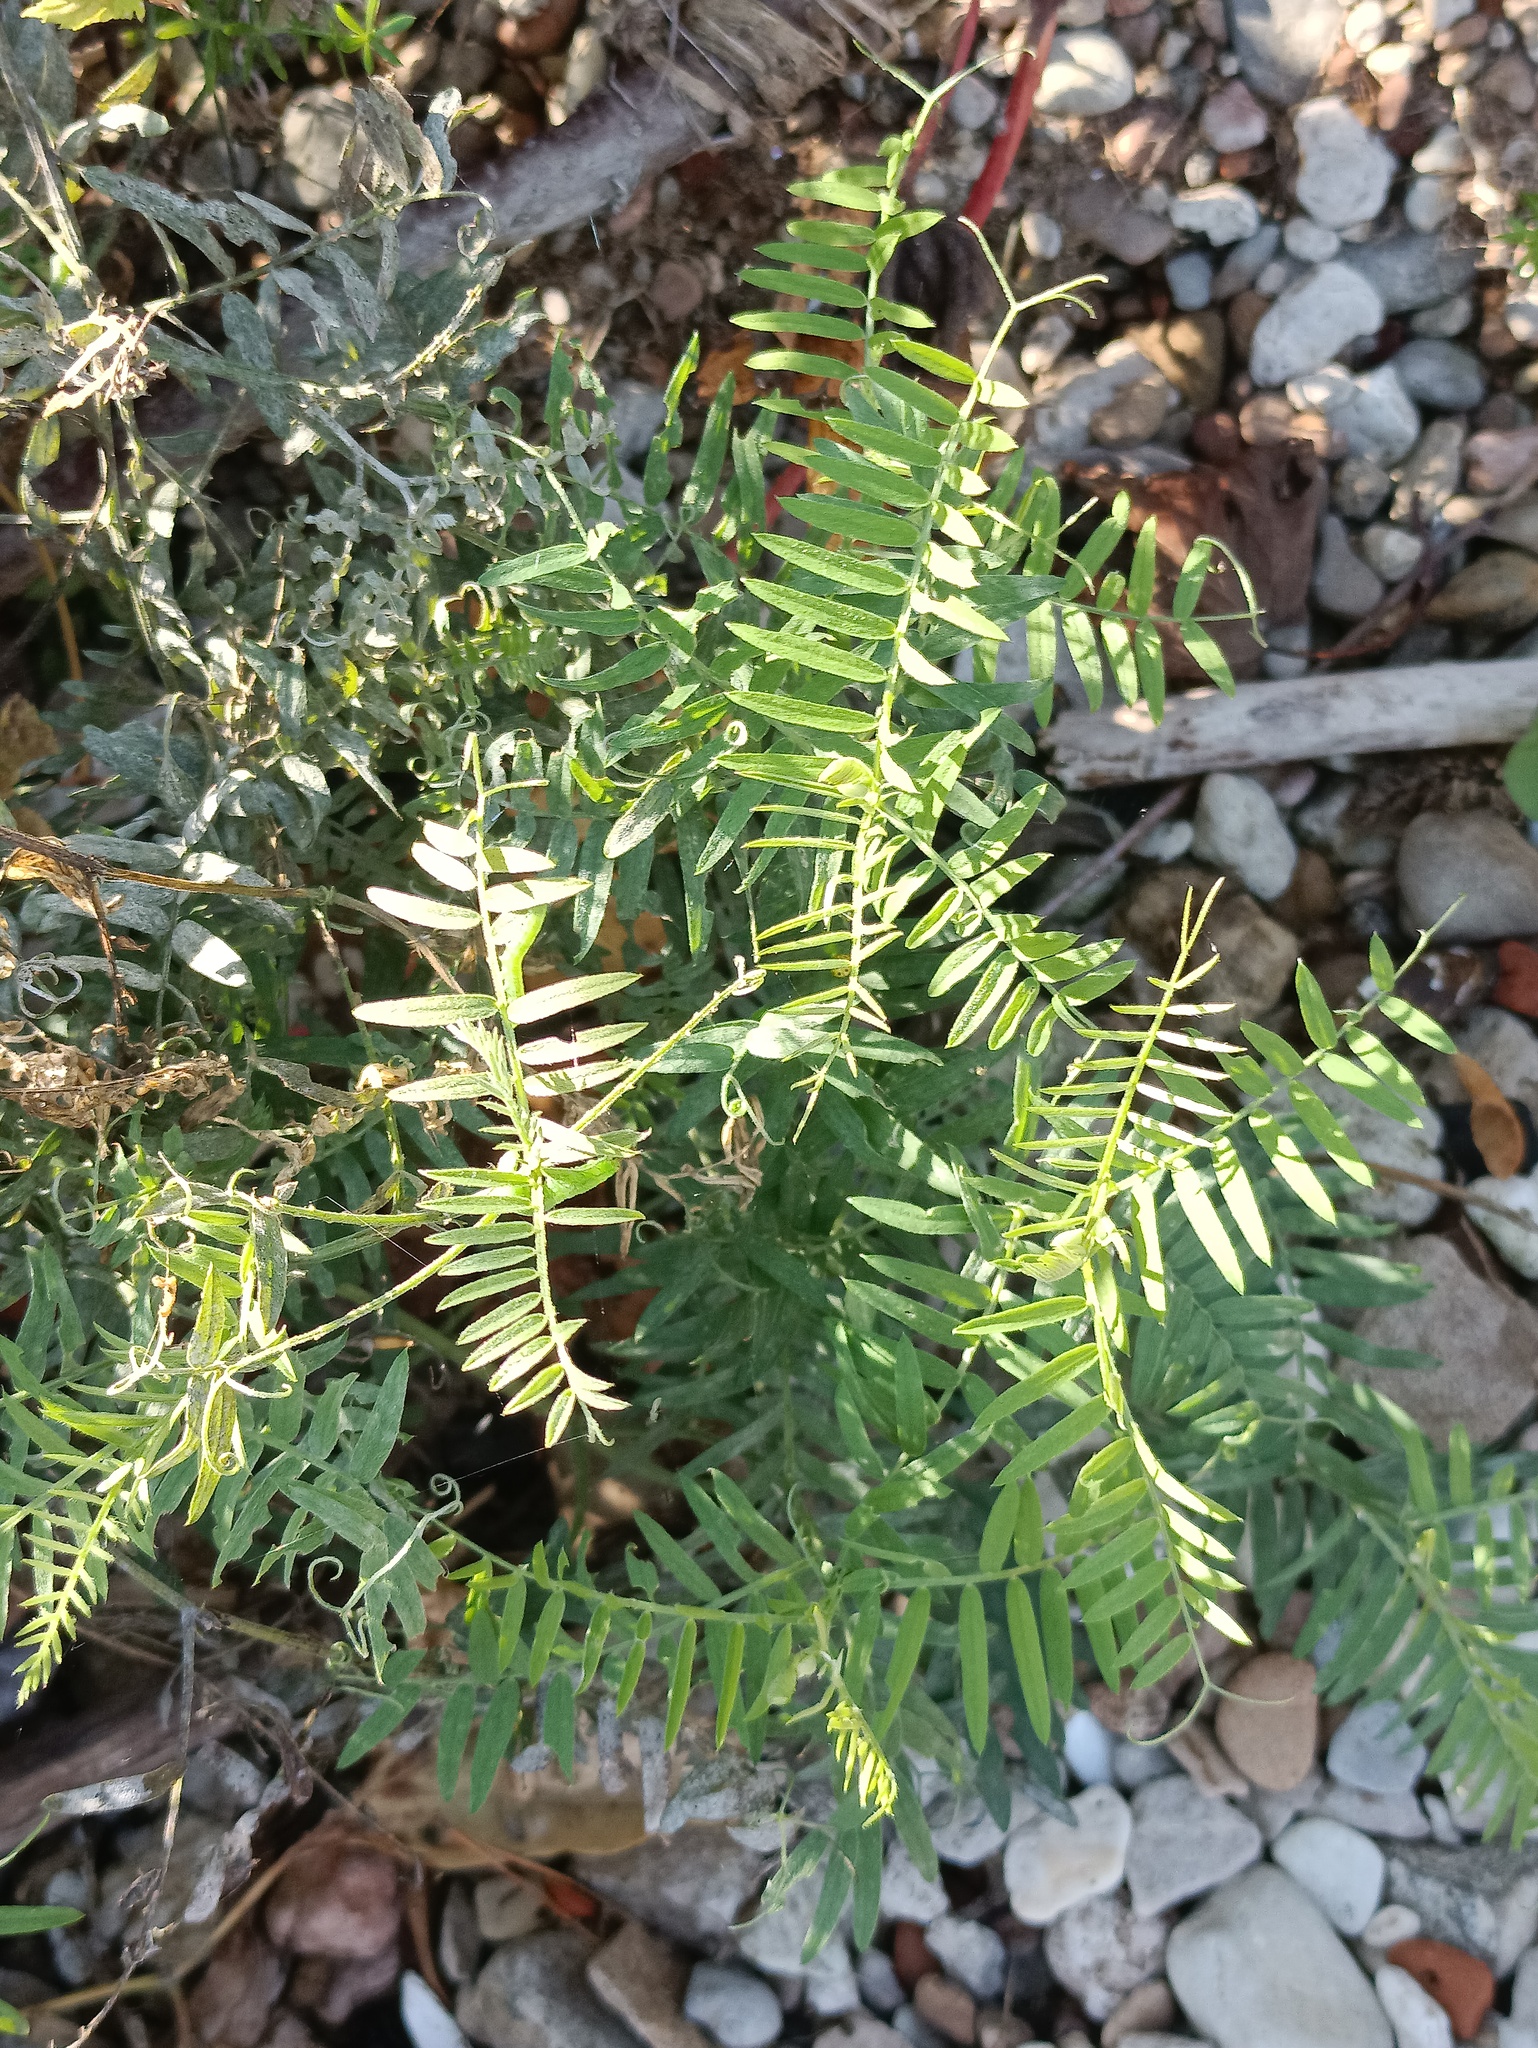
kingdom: Plantae
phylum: Tracheophyta
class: Magnoliopsida
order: Fabales
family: Fabaceae
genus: Vicia
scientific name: Vicia cracca
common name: Bird vetch
